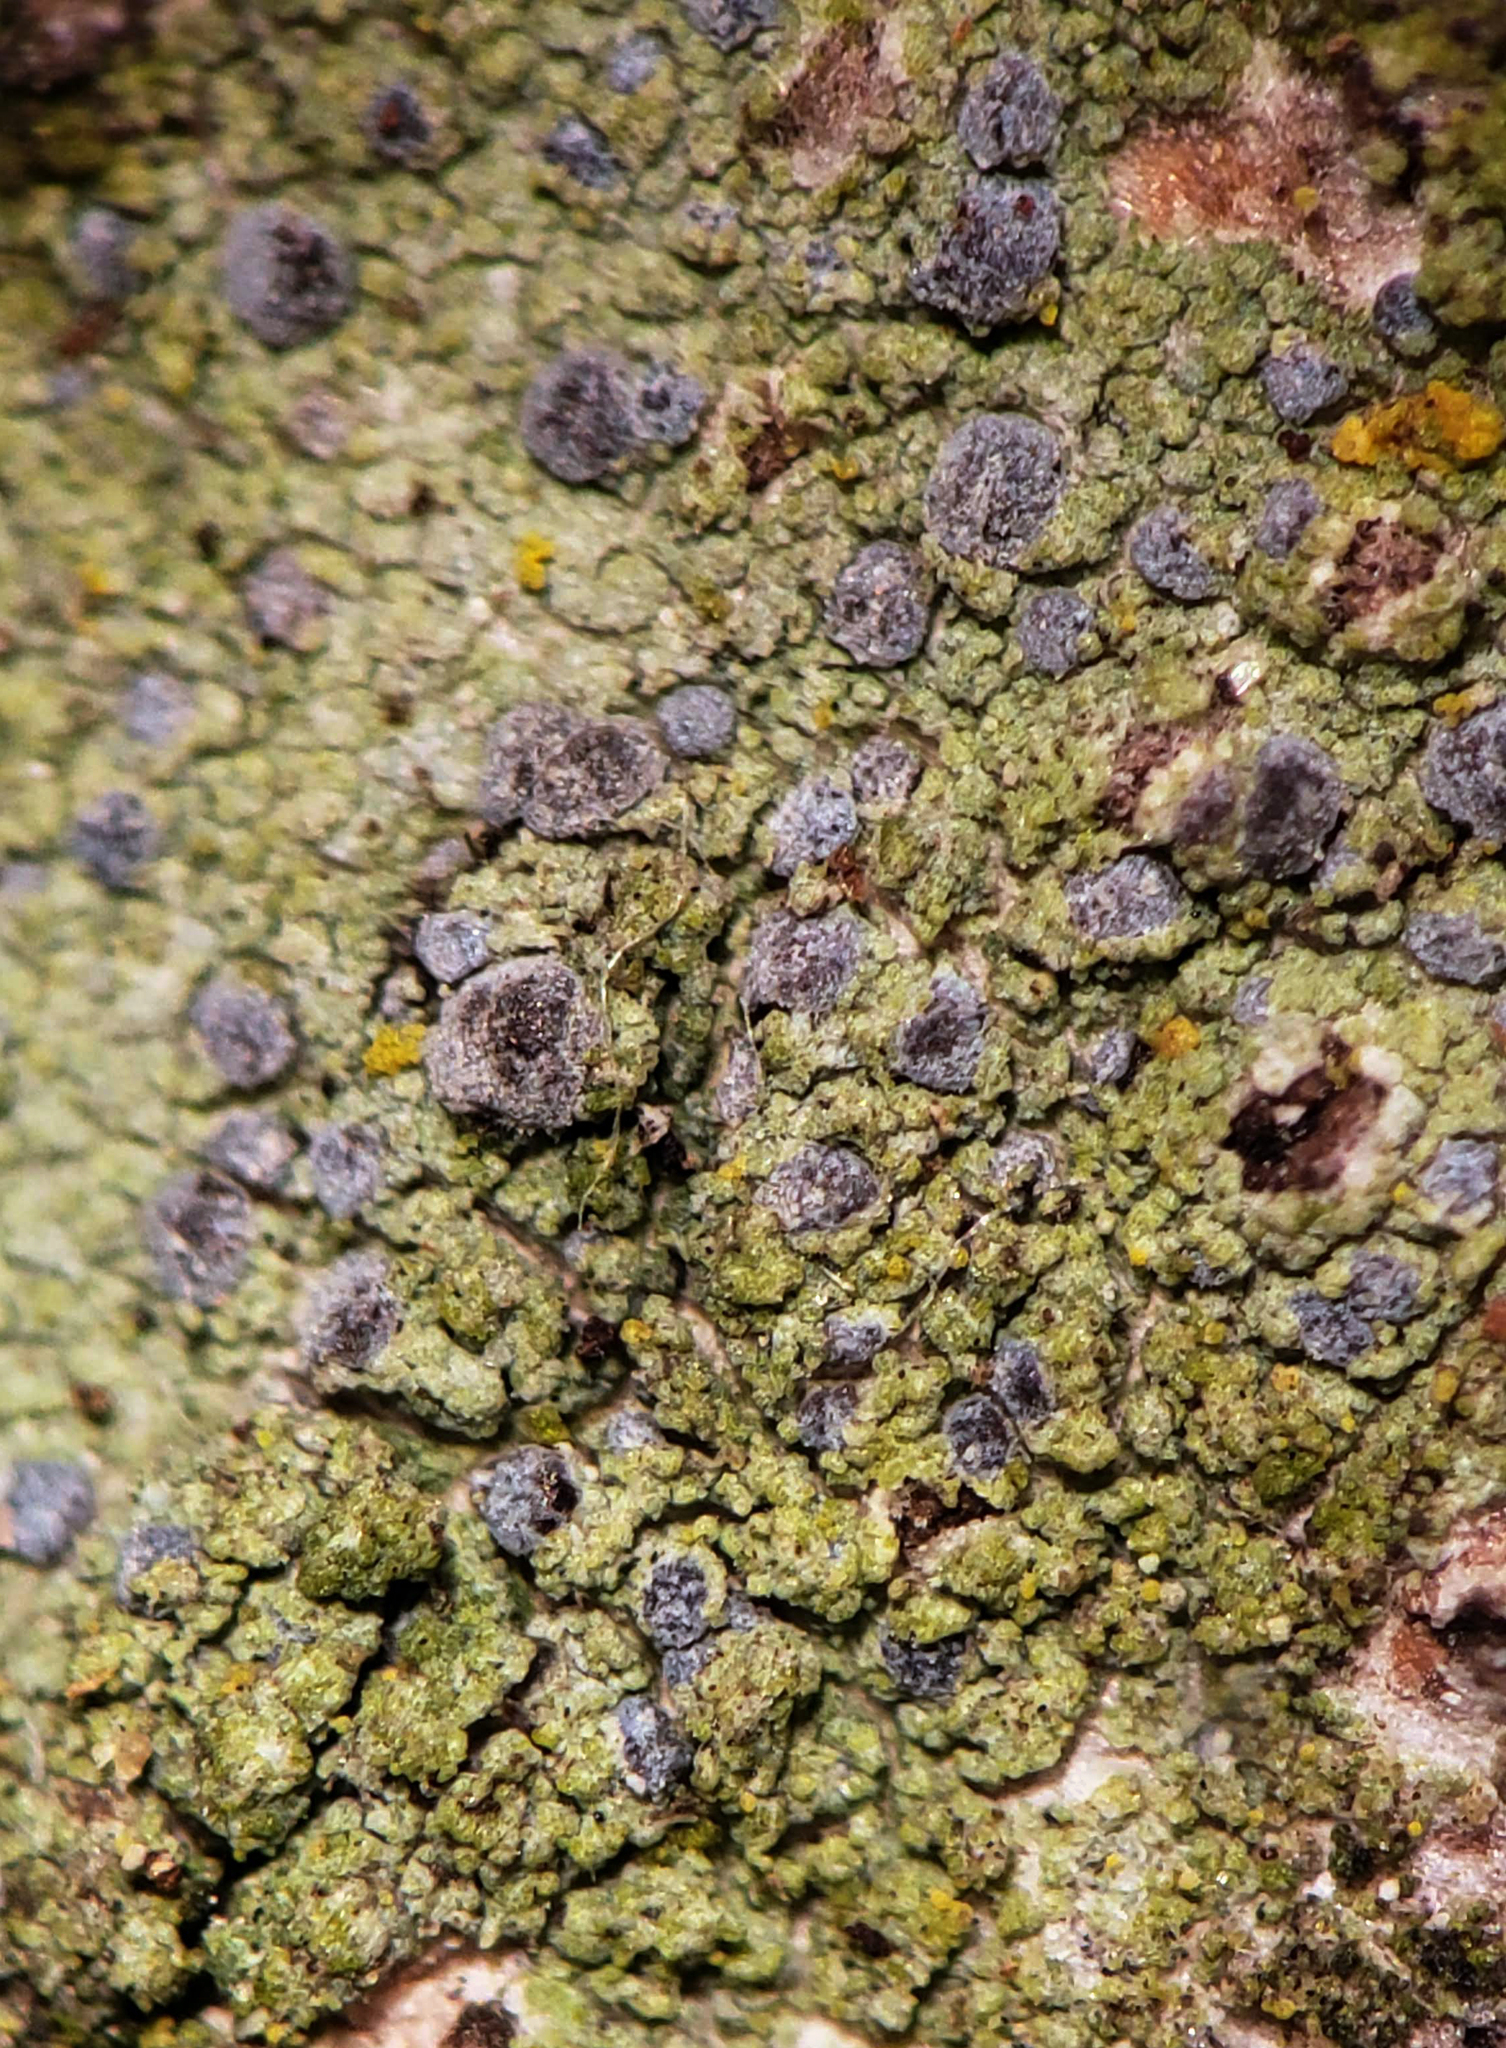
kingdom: Fungi
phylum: Ascomycota
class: Arthoniomycetes
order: Arthoniales
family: Chrysotrichaceae
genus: Chrysothrix
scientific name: Chrysothrix caesia
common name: Frosted comma lichen
